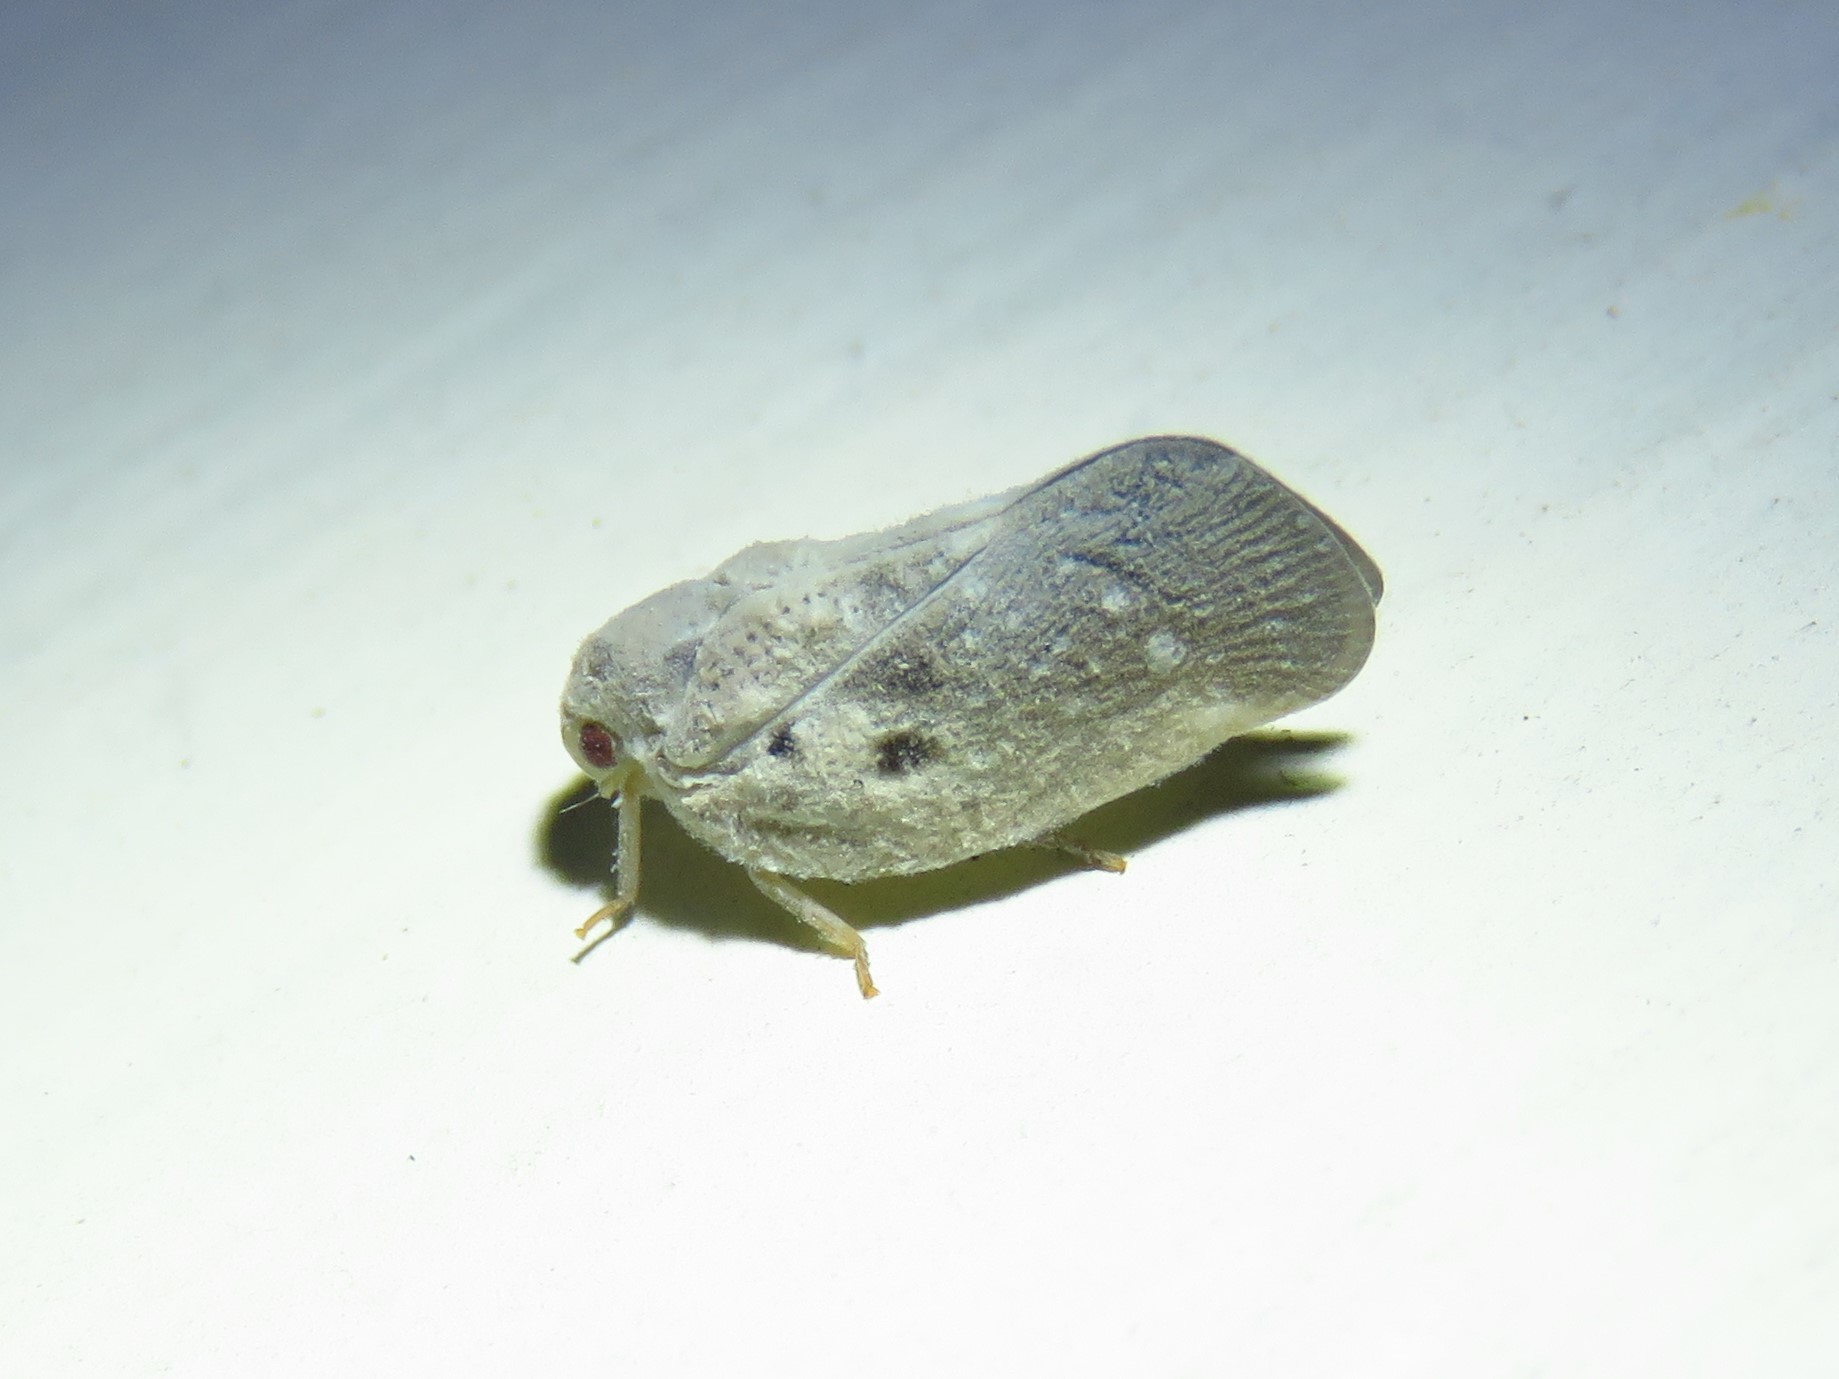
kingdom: Animalia
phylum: Arthropoda
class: Insecta
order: Hemiptera
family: Flatidae
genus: Metcalfa
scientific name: Metcalfa pruinosa
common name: Citrus flatid planthopper
